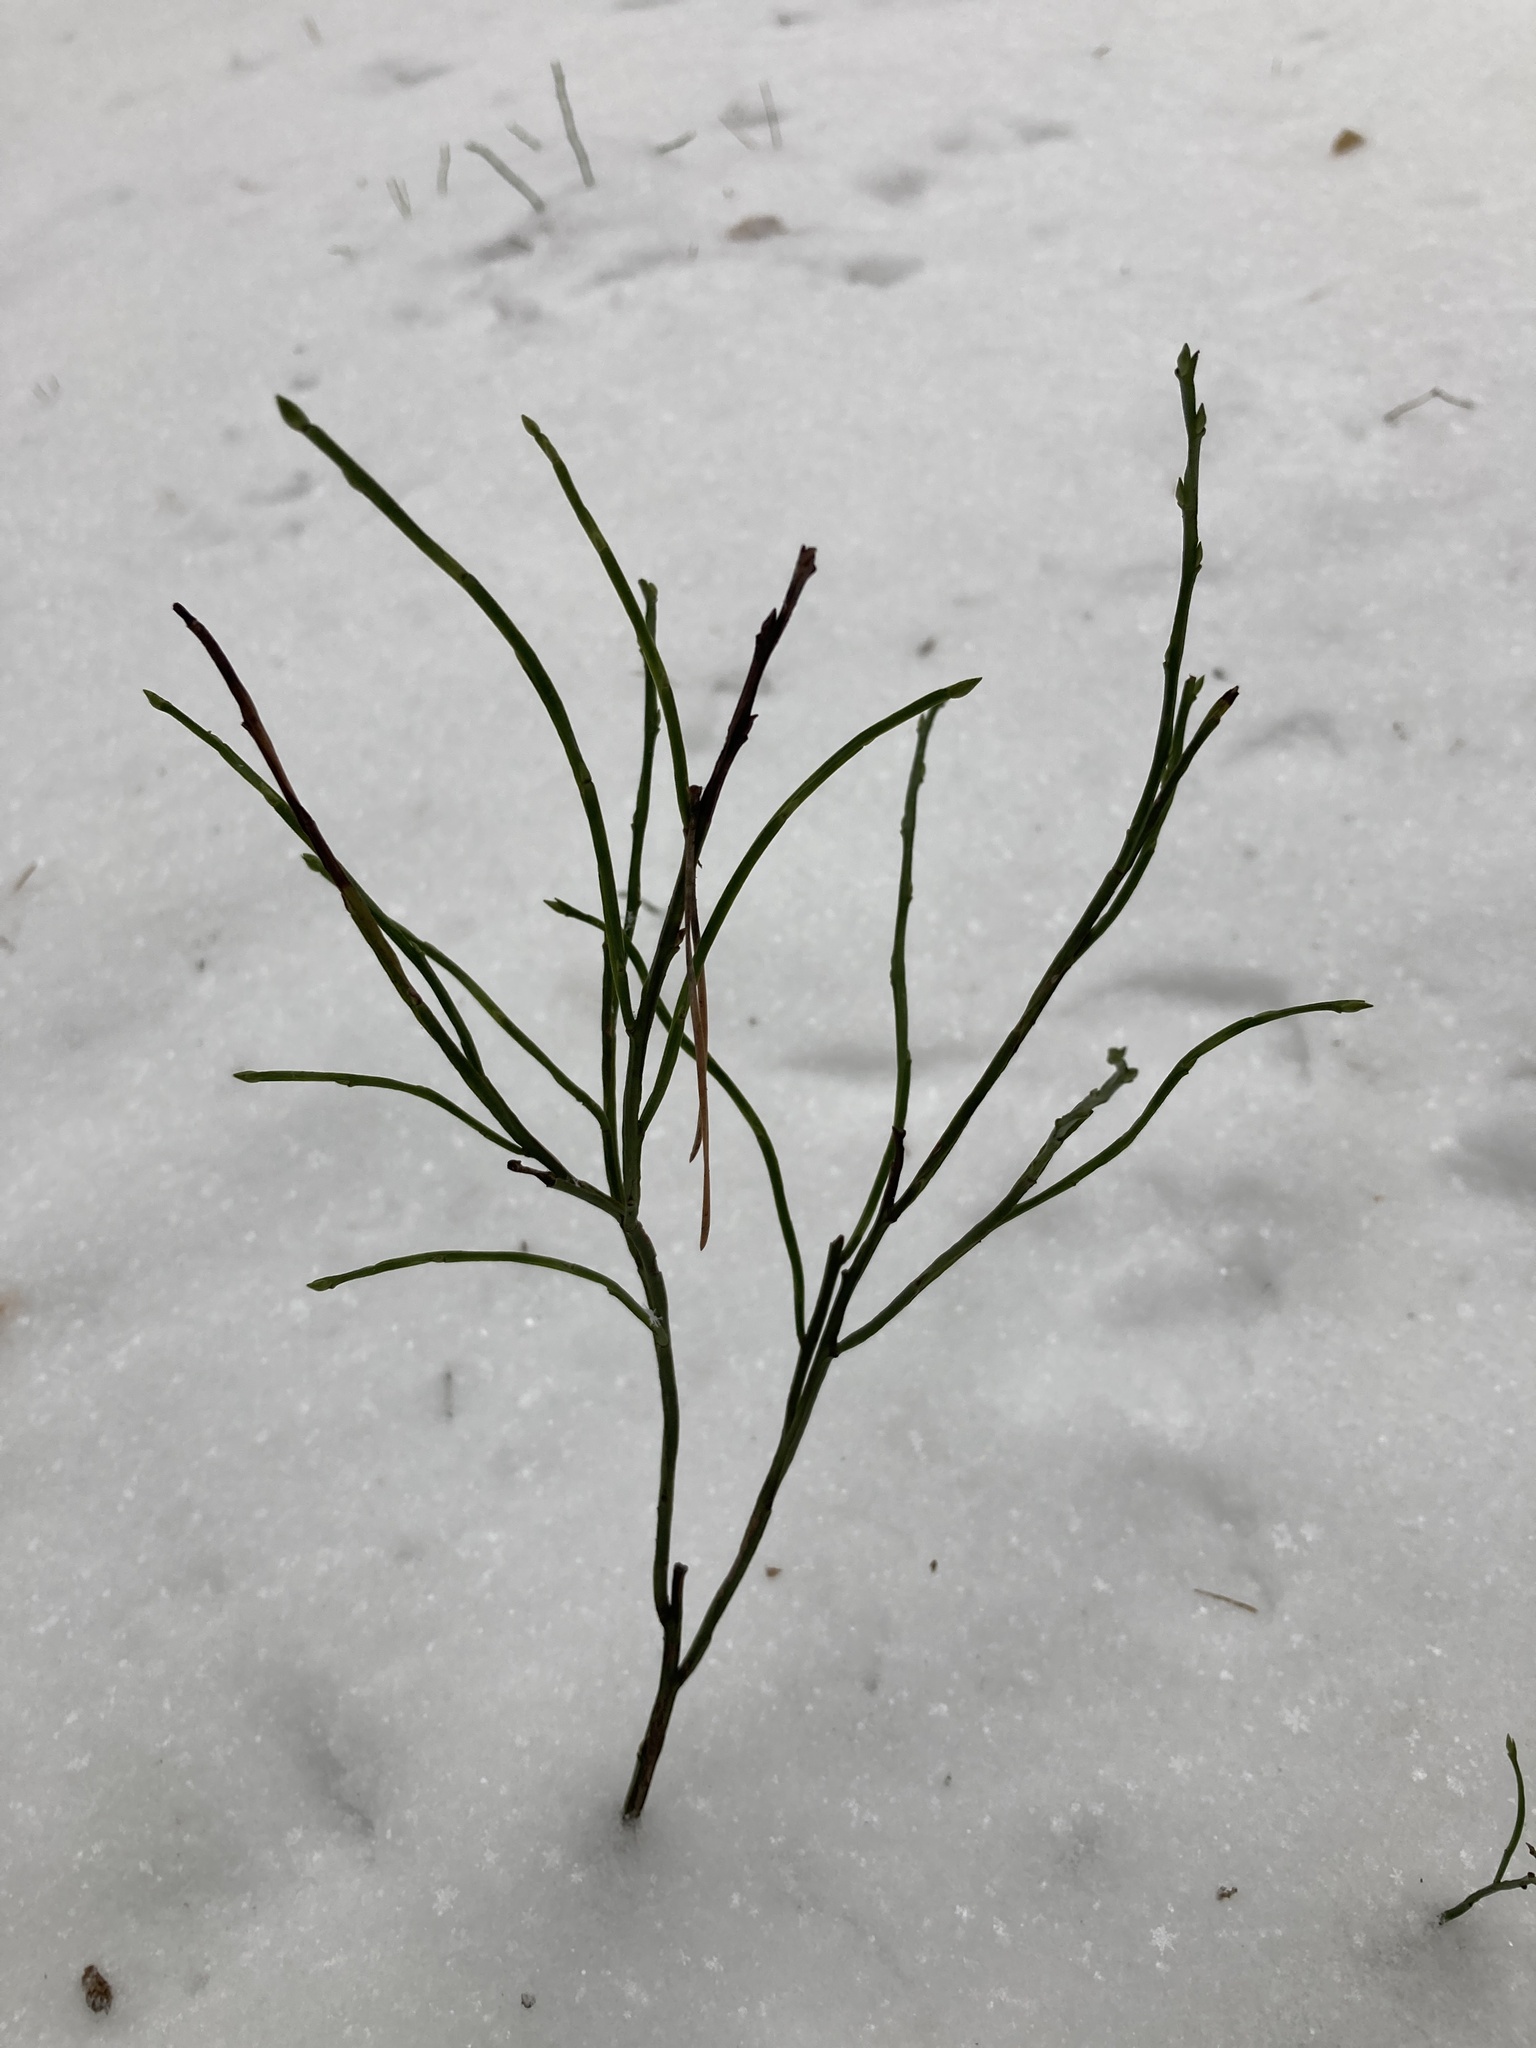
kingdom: Plantae
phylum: Tracheophyta
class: Magnoliopsida
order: Ericales
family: Ericaceae
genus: Vaccinium
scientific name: Vaccinium myrtillus
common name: Bilberry
